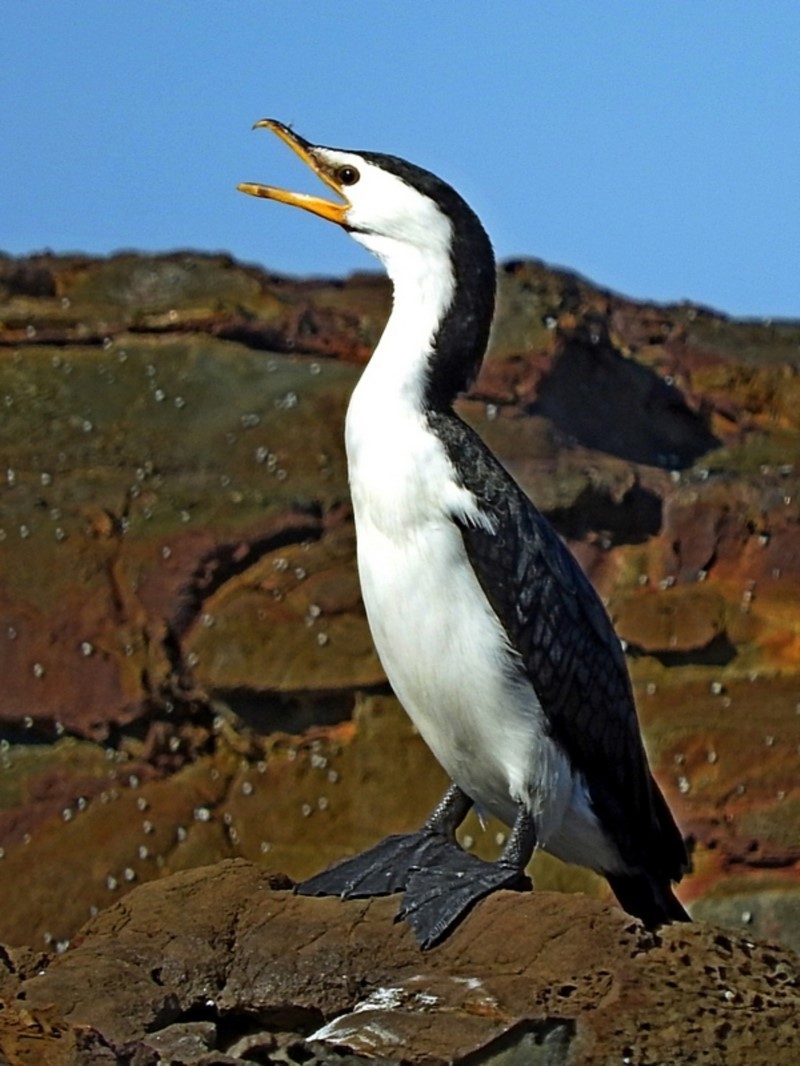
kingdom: Animalia
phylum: Chordata
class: Aves
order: Suliformes
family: Phalacrocoracidae
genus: Microcarbo
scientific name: Microcarbo melanoleucos
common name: Little pied cormorant
